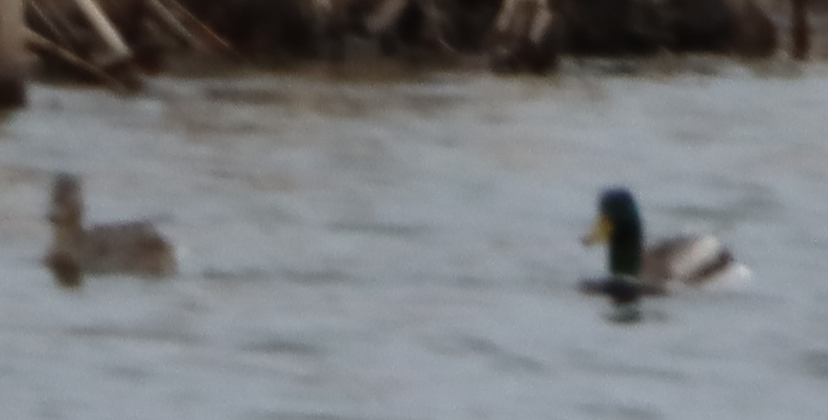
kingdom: Animalia
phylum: Chordata
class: Aves
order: Anseriformes
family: Anatidae
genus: Anas
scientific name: Anas platyrhynchos
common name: Mallard
